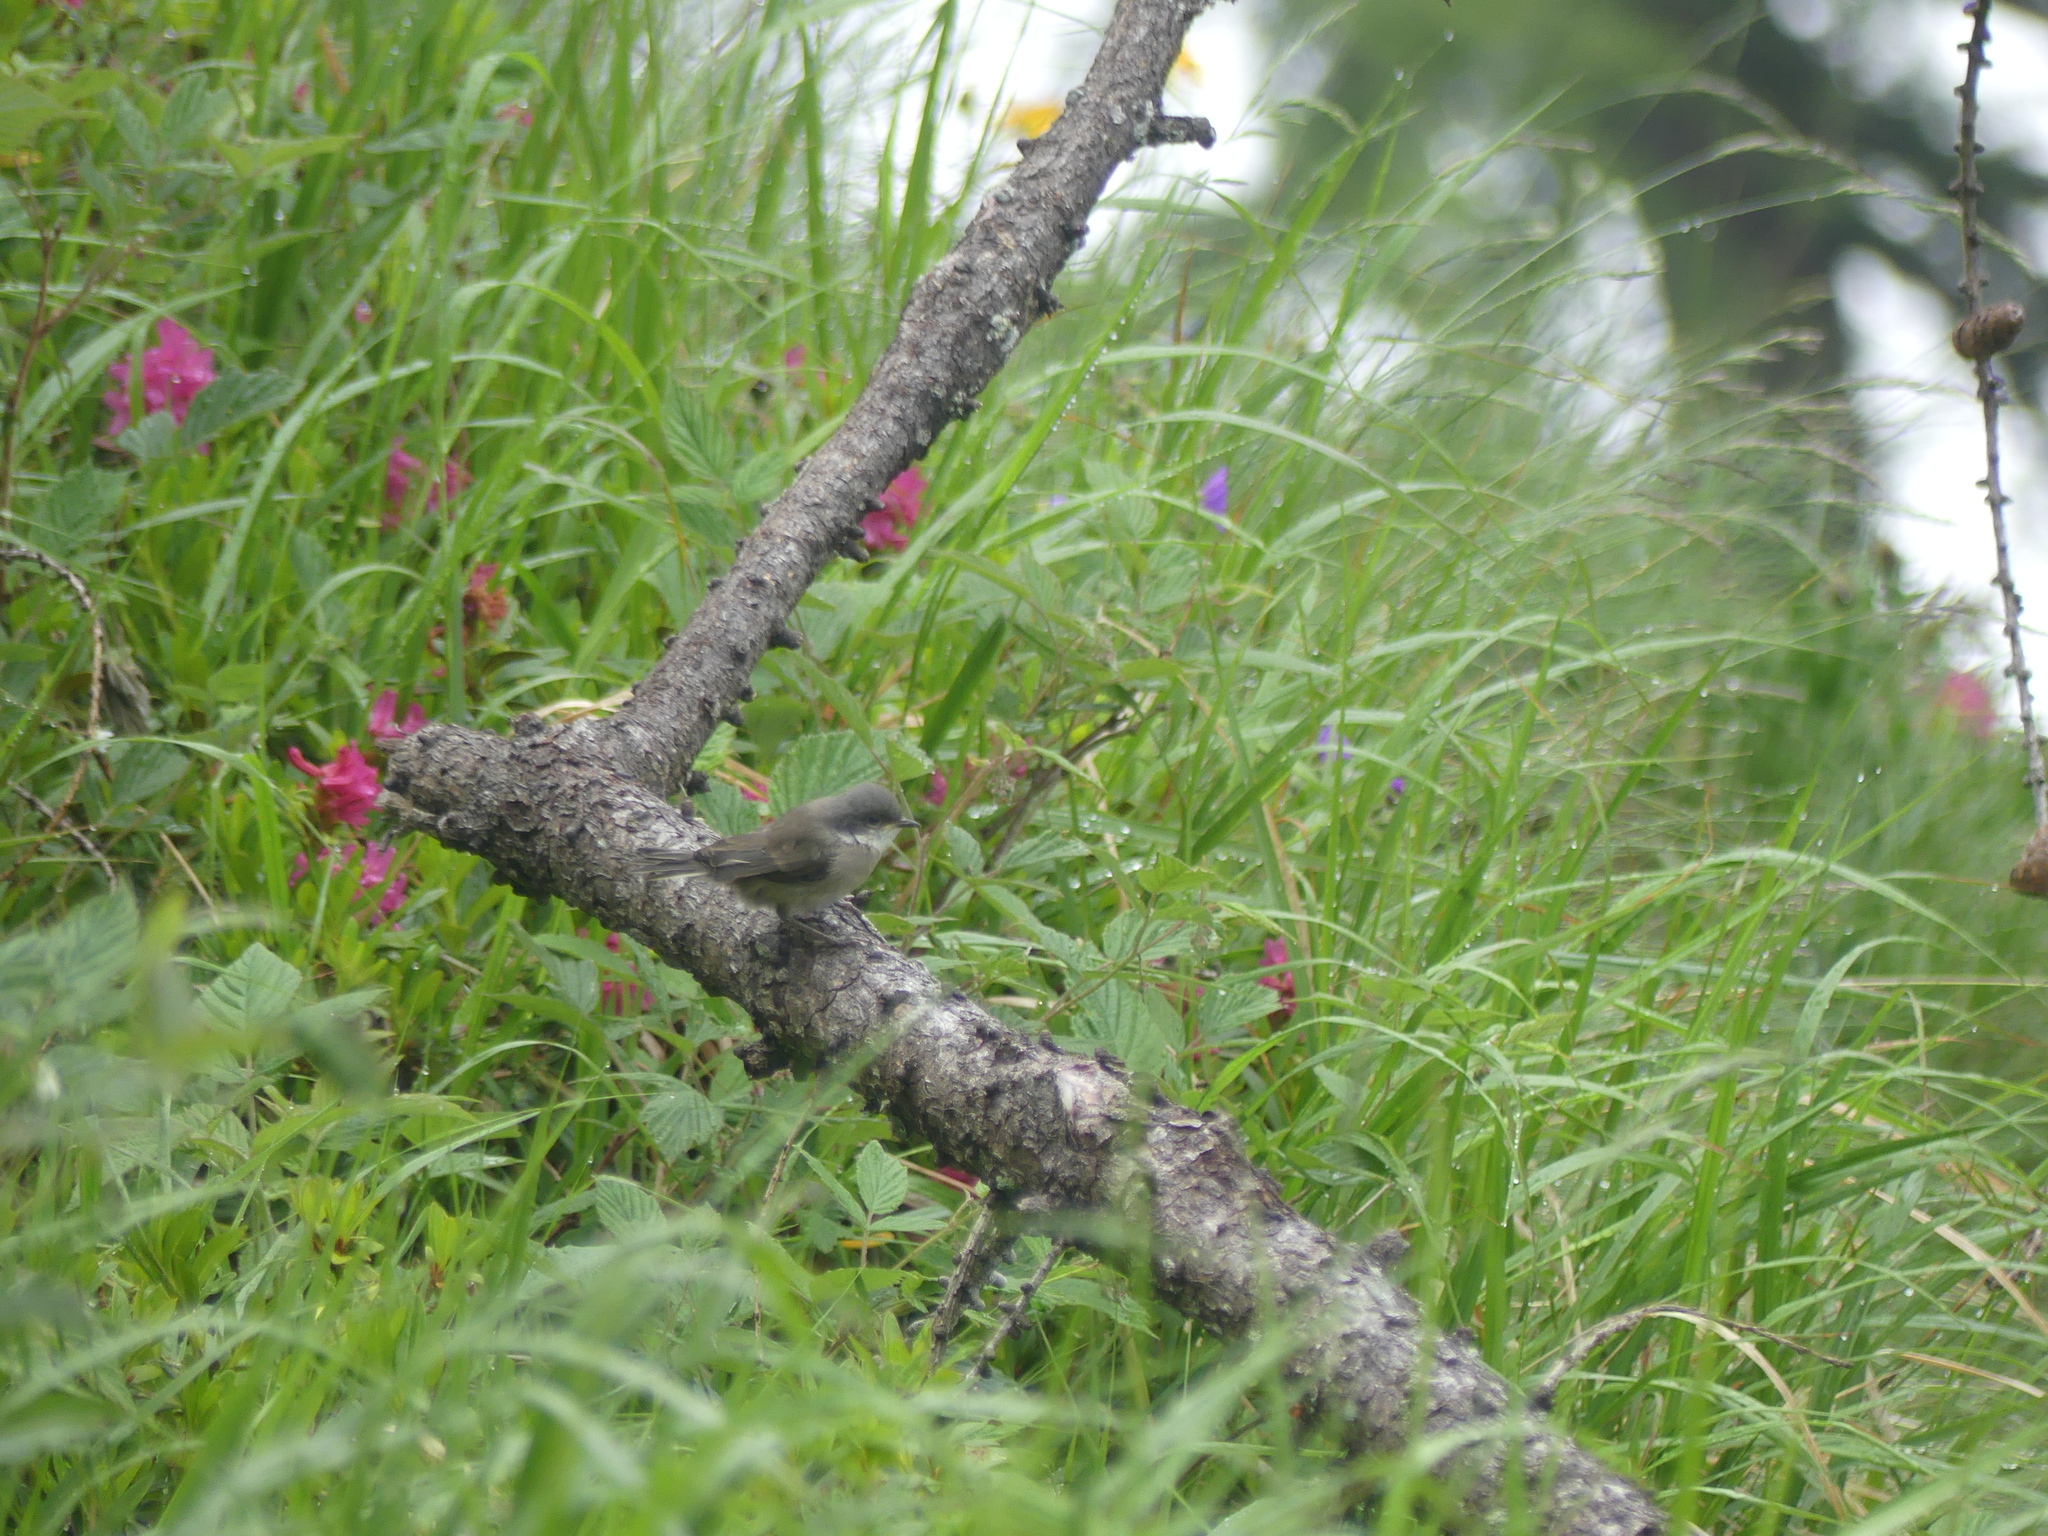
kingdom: Animalia
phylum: Chordata
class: Aves
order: Passeriformes
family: Sylviidae
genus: Sylvia
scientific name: Sylvia curruca
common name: Lesser whitethroat
